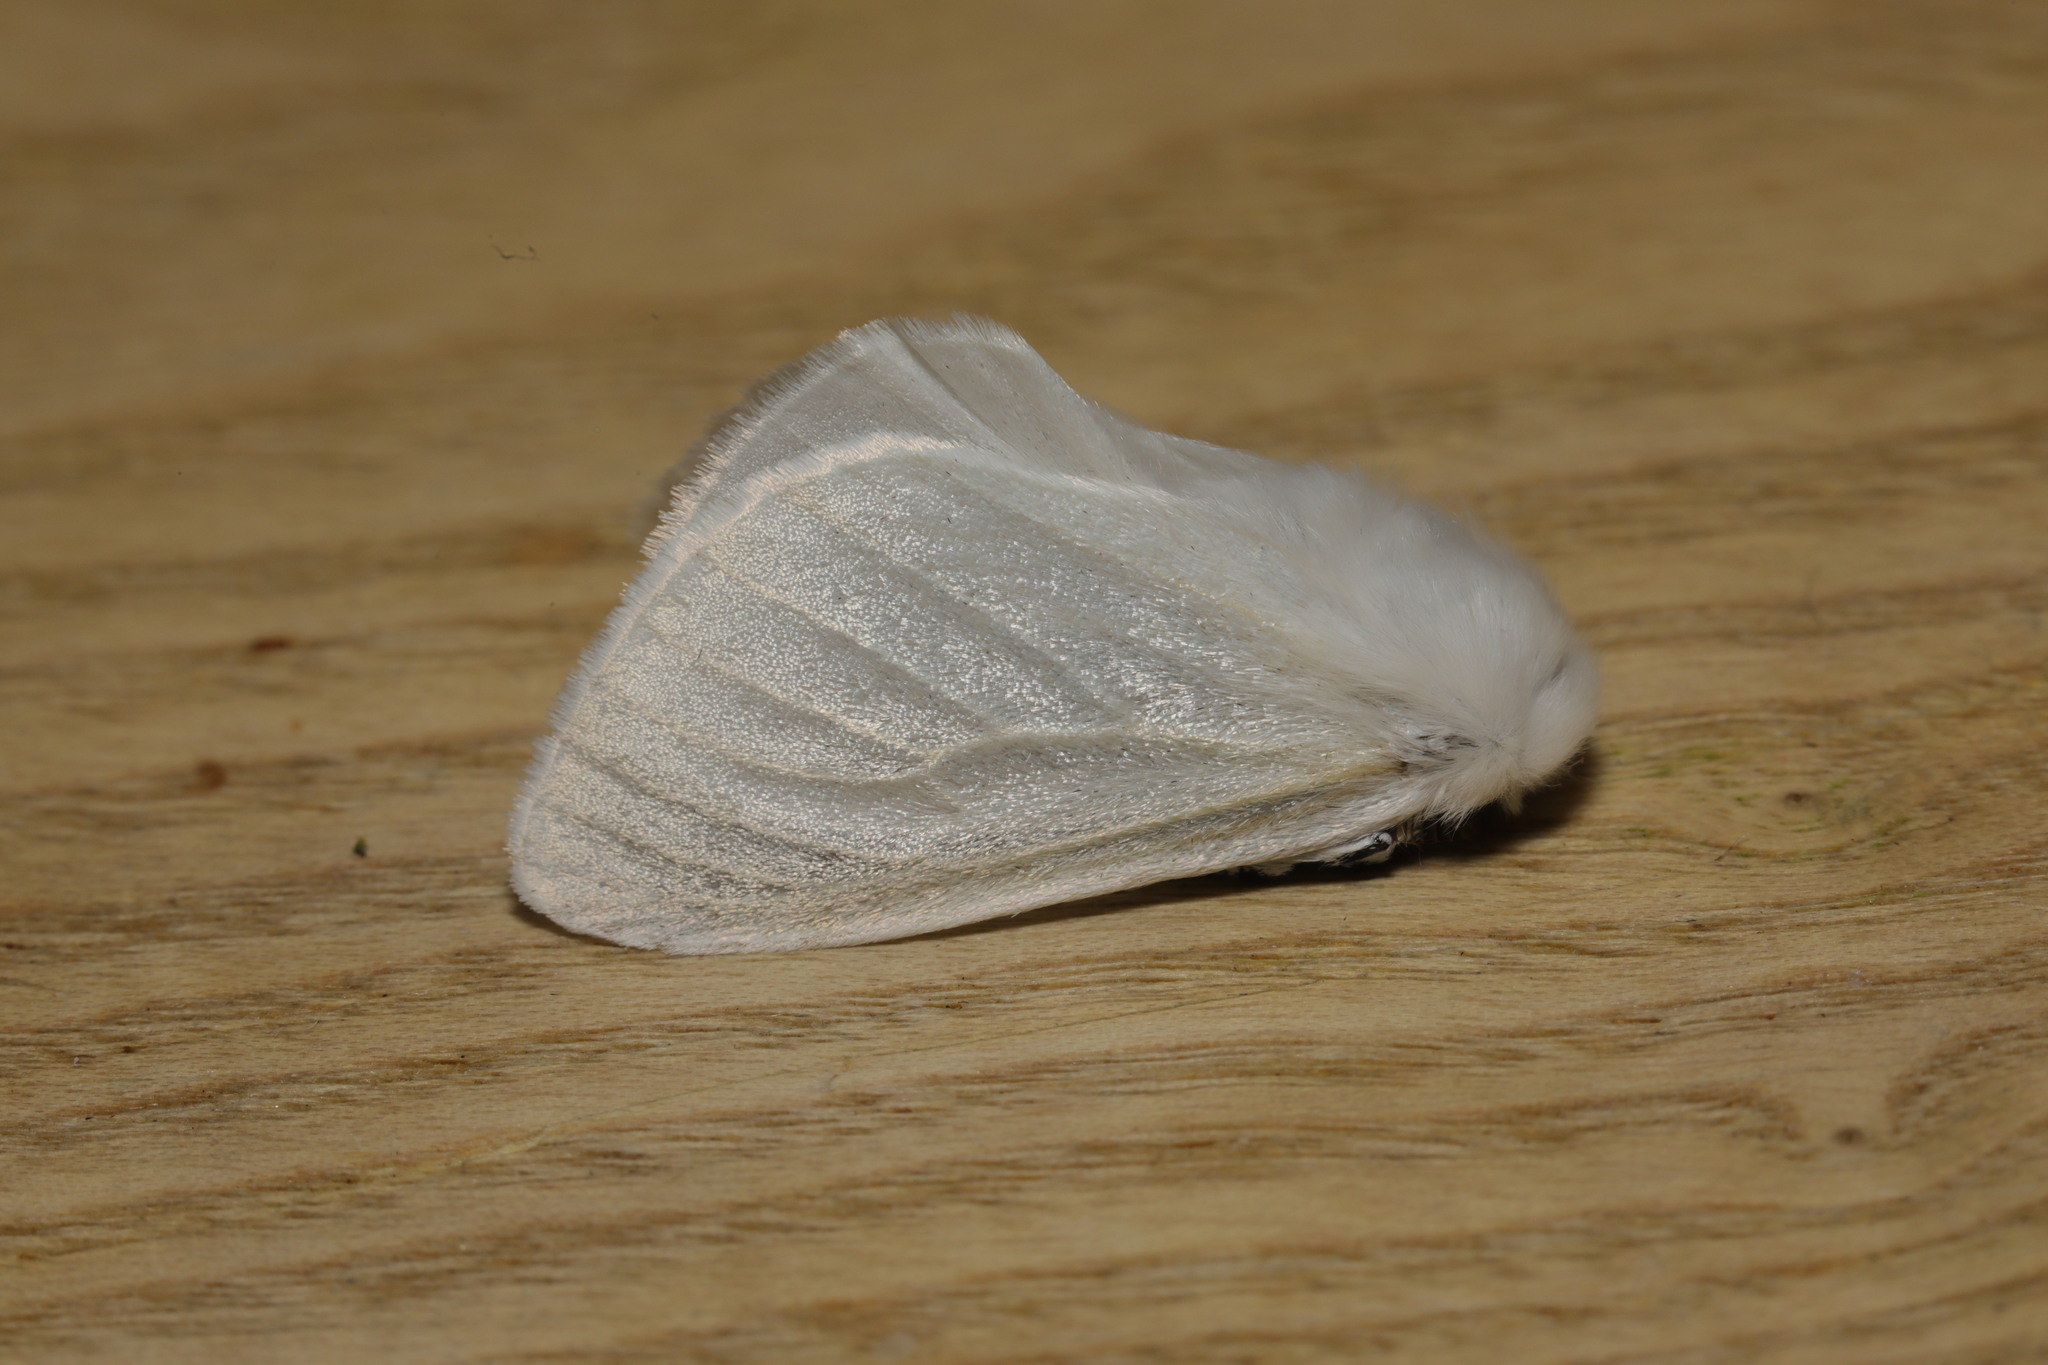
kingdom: Animalia
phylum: Arthropoda
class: Insecta
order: Lepidoptera
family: Erebidae
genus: Leucoma
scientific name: Leucoma salicis
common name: White satin moth
